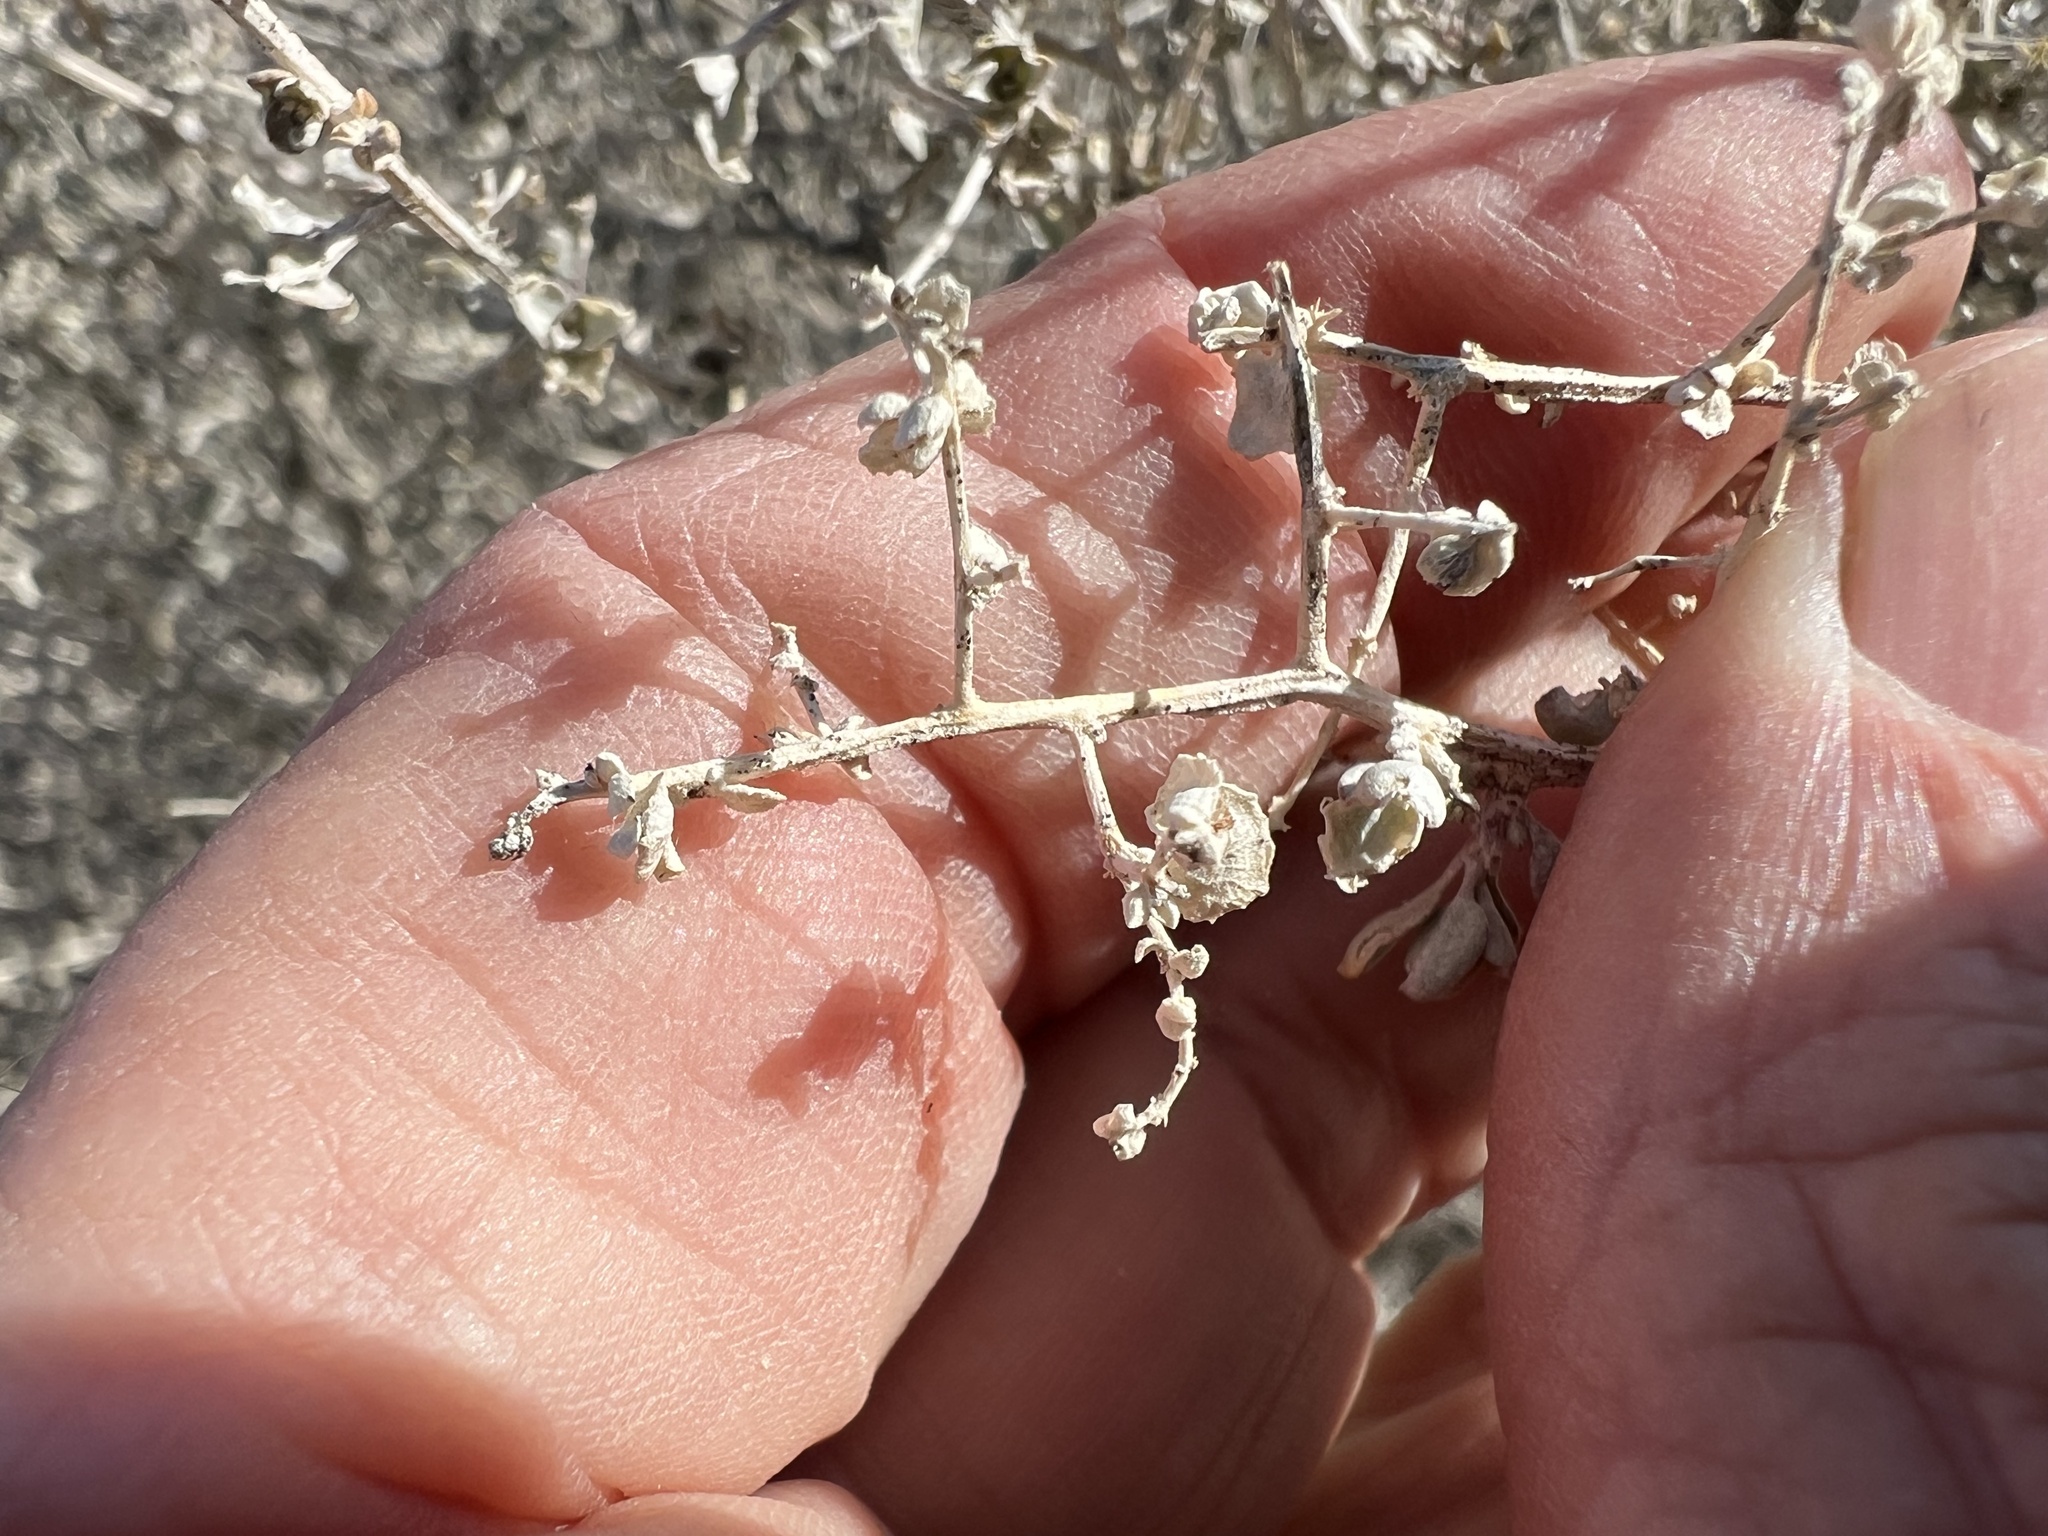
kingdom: Plantae
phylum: Tracheophyta
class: Magnoliopsida
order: Caryophyllales
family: Amaranthaceae
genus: Atriplex
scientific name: Atriplex torreyi
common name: Torrey's saltbush
